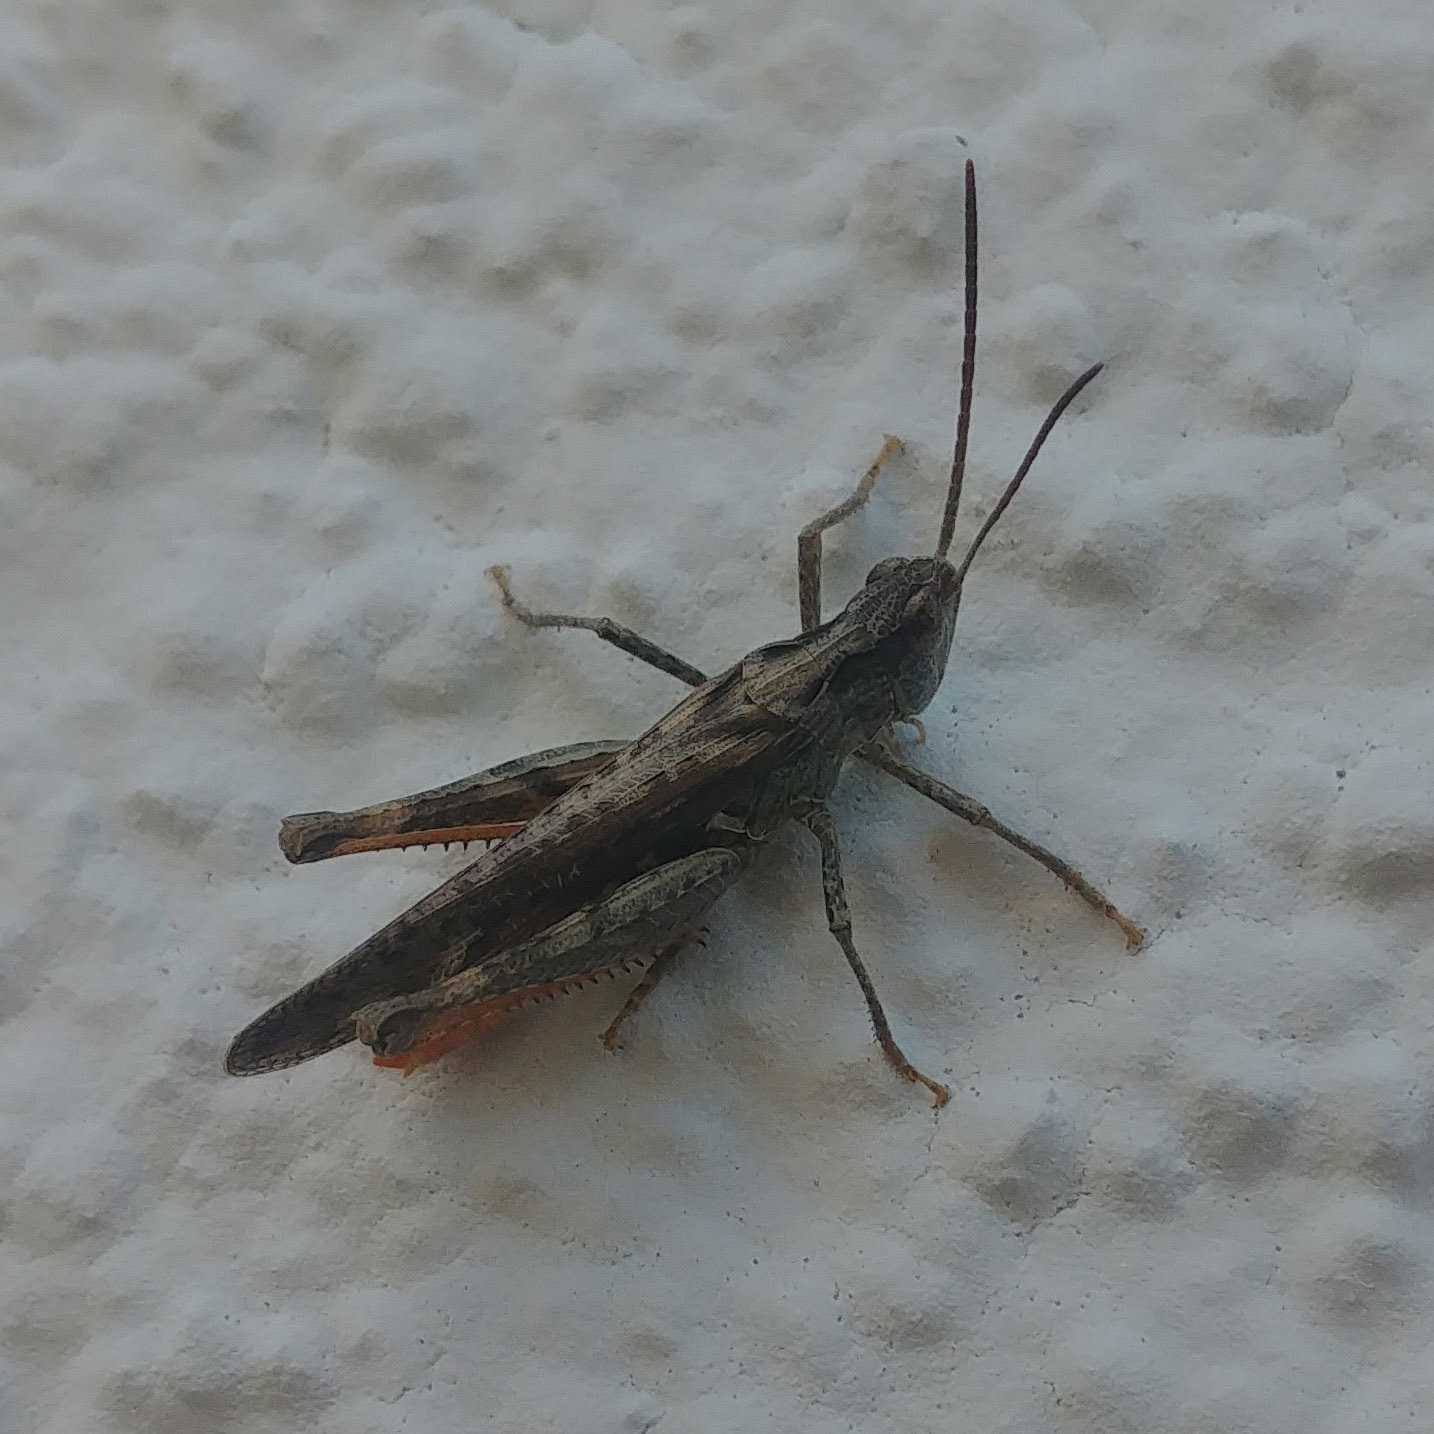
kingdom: Animalia
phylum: Arthropoda
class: Insecta
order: Orthoptera
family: Acrididae
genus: Chorthippus
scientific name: Chorthippus brunneus
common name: Field grasshopper
